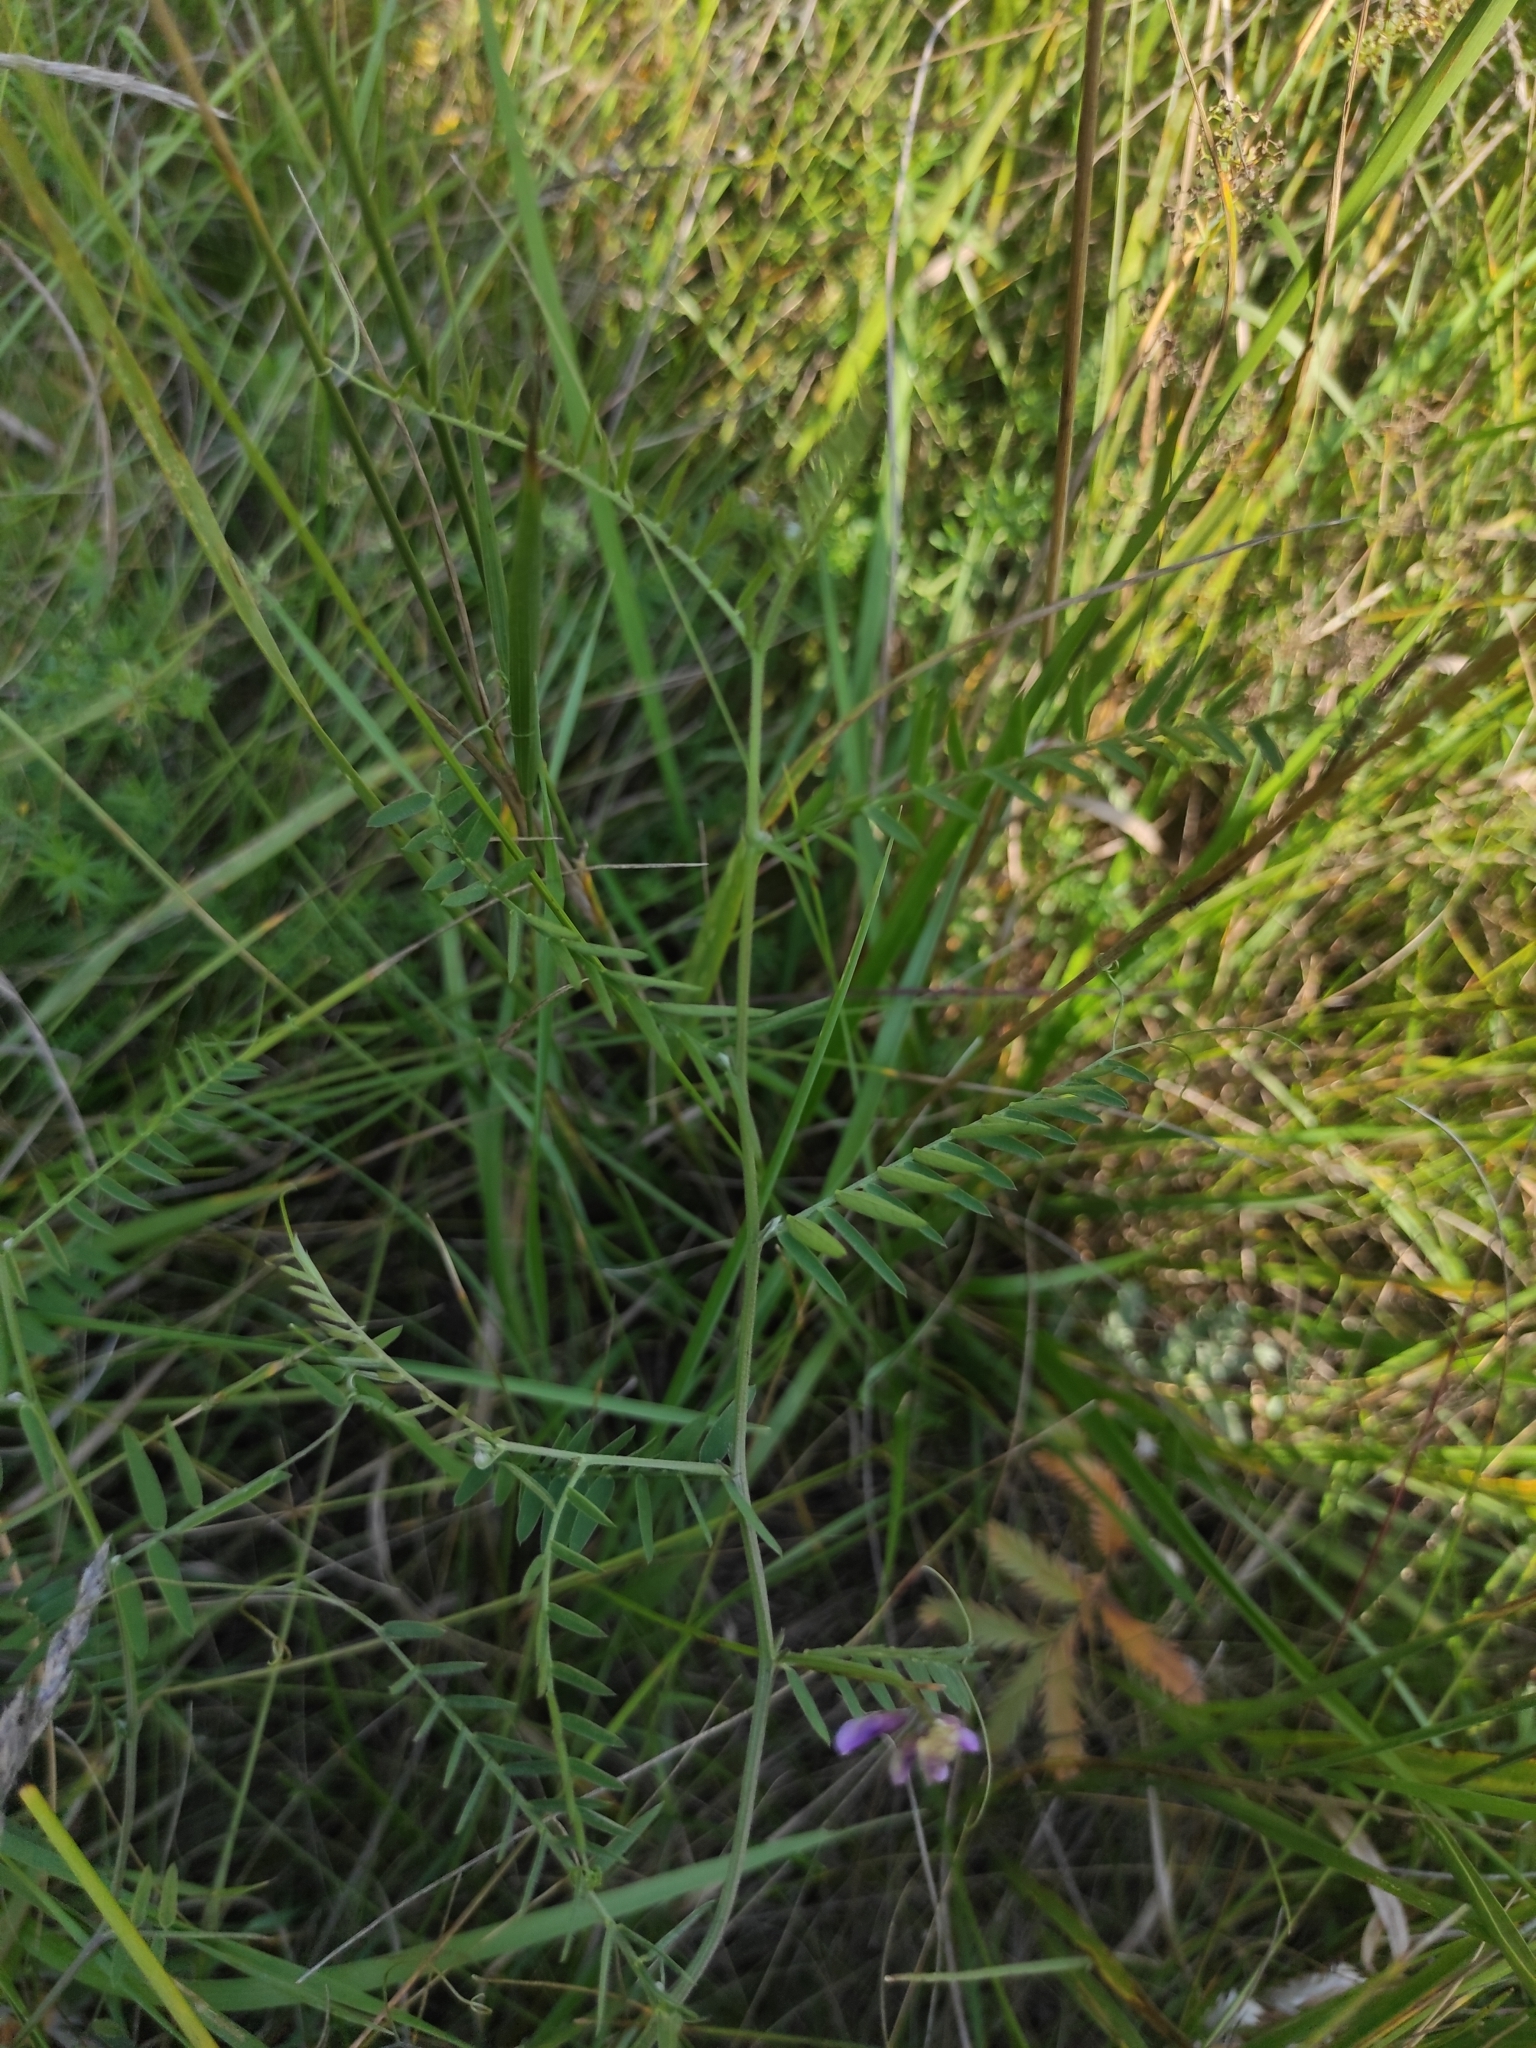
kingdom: Plantae
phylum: Tracheophyta
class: Magnoliopsida
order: Fabales
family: Fabaceae
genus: Vicia
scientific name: Vicia cracca
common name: Bird vetch
